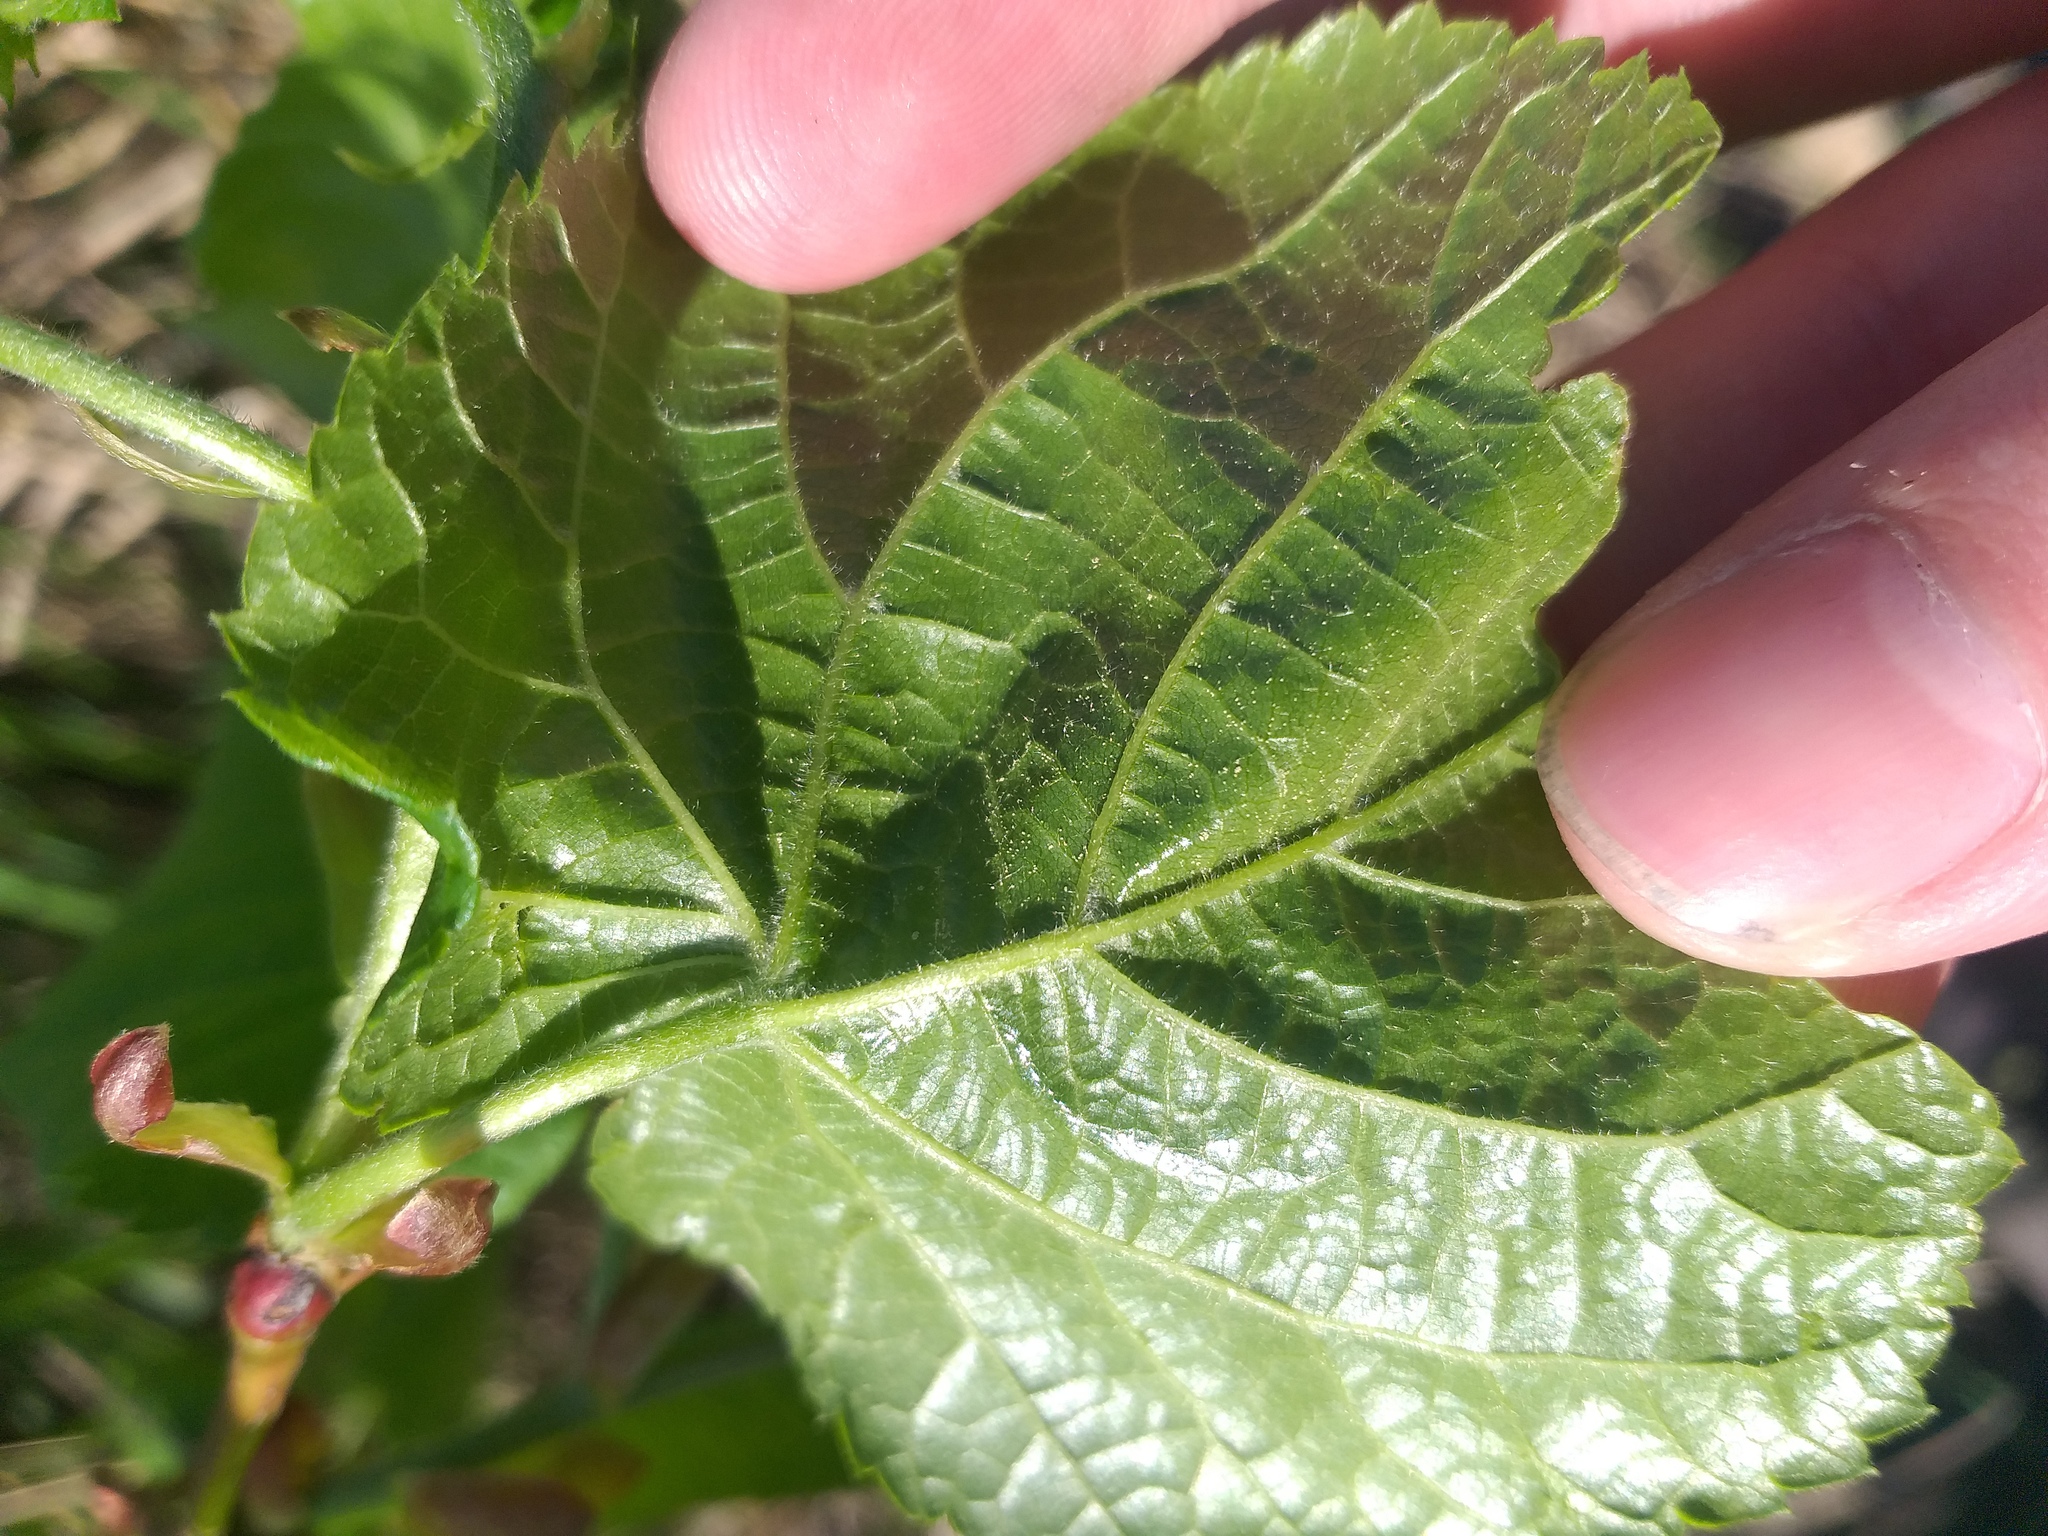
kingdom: Plantae
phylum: Tracheophyta
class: Magnoliopsida
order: Malvales
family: Malvaceae
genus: Tilia
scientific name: Tilia platyphyllos
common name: Large-leaved lime
